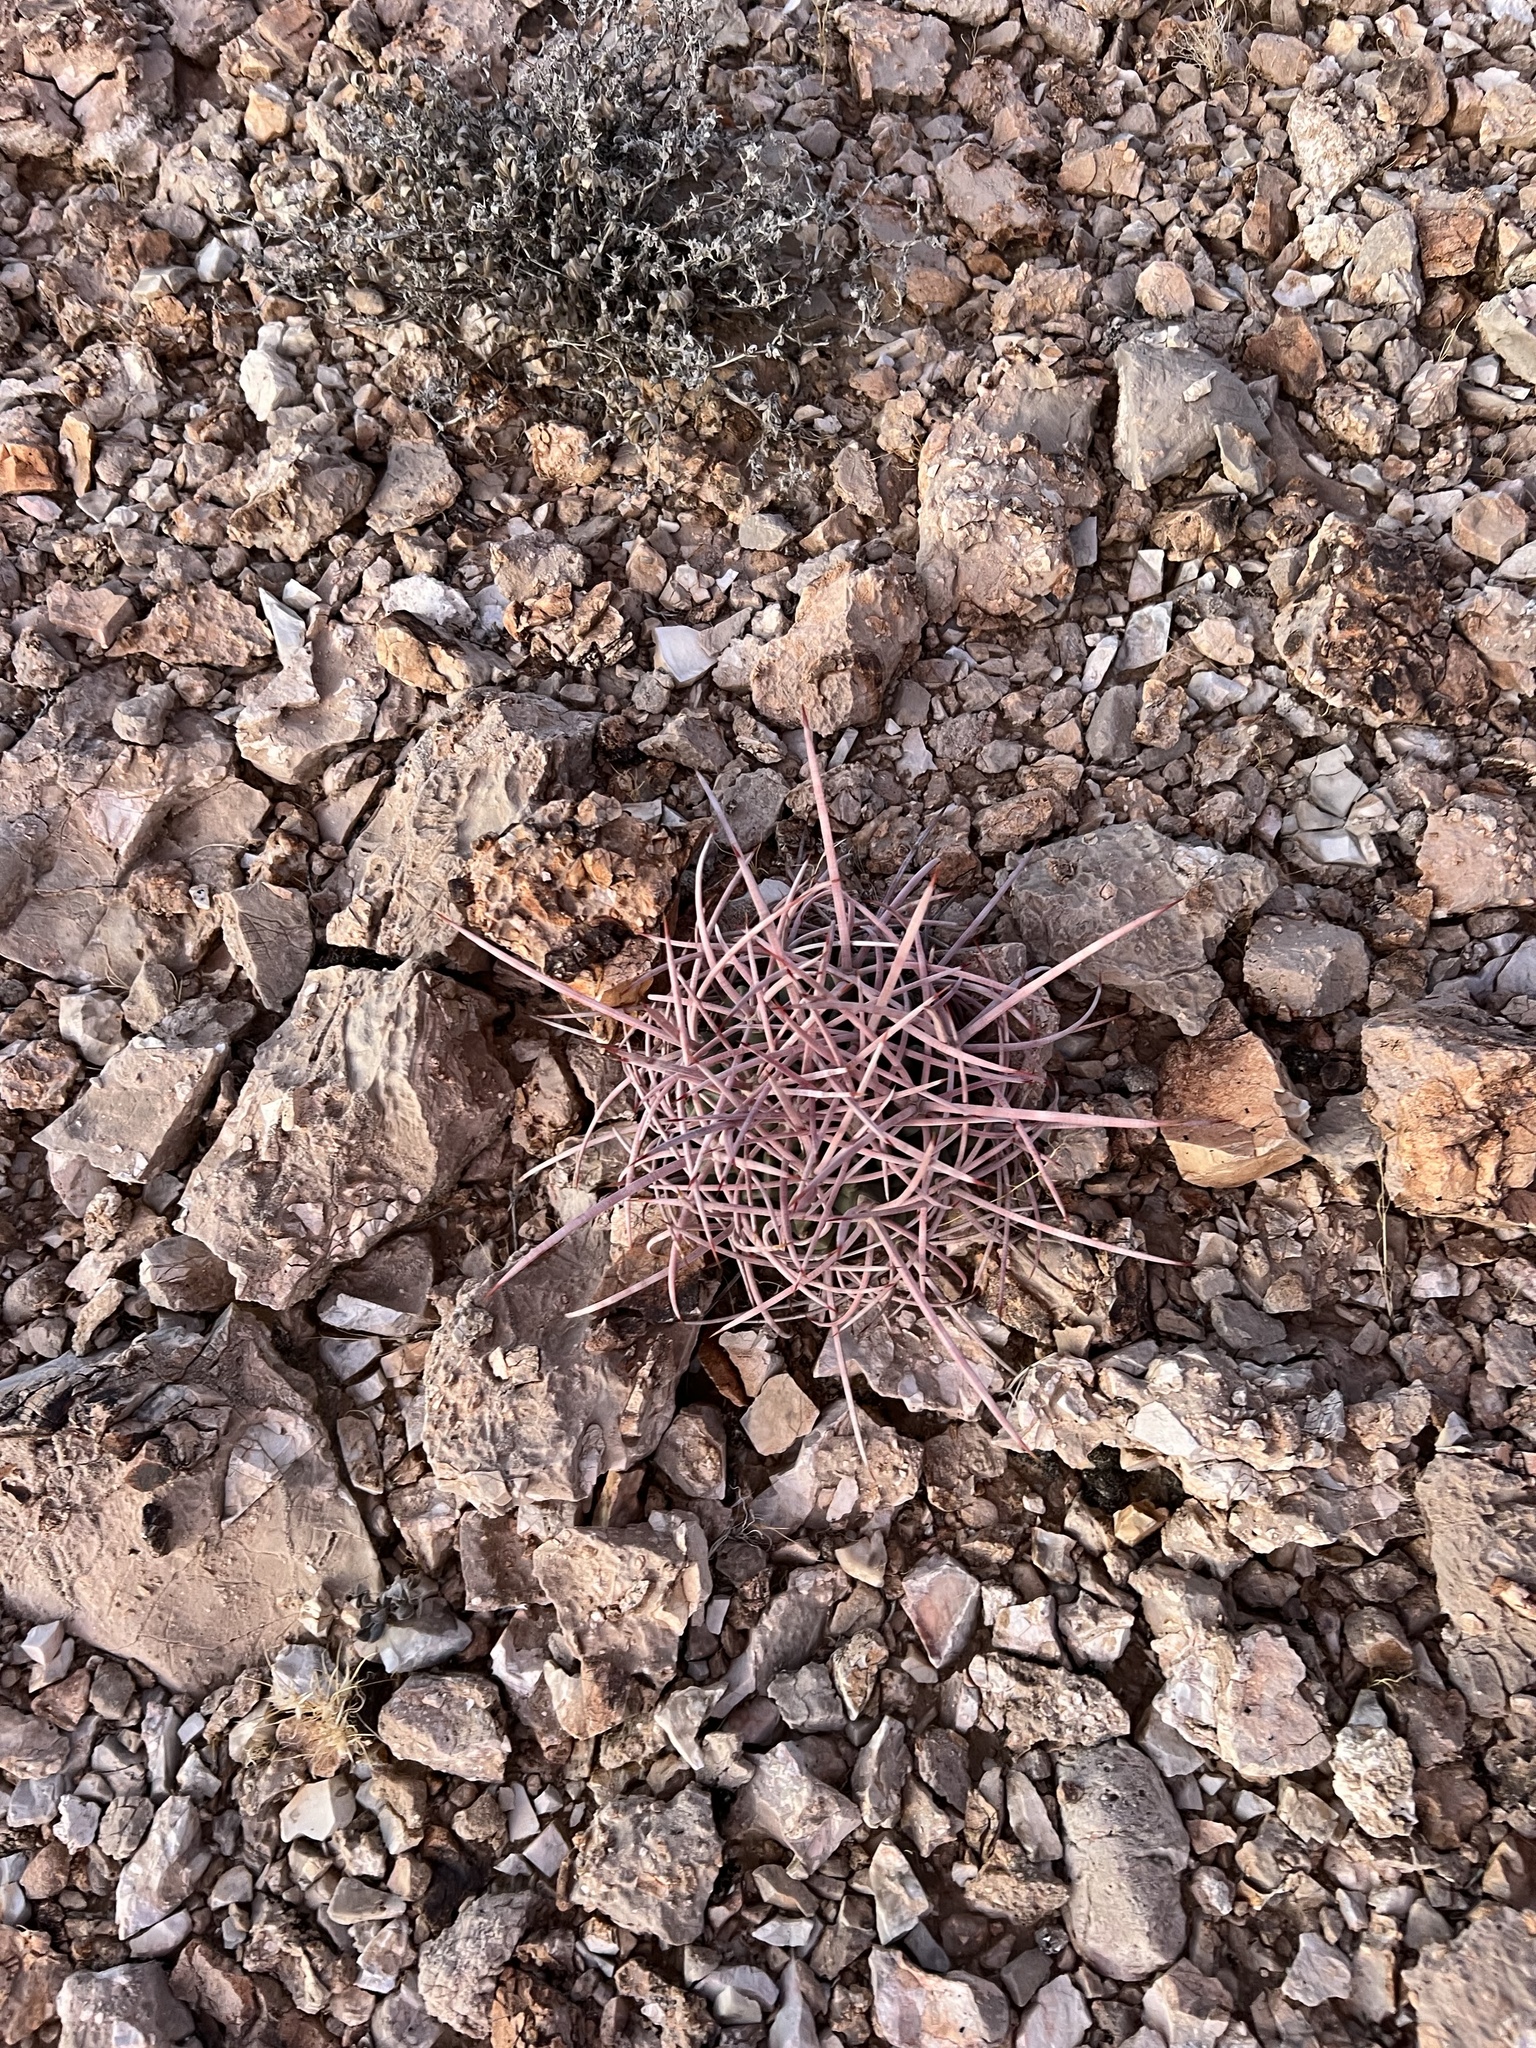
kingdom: Plantae
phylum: Tracheophyta
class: Magnoliopsida
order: Caryophyllales
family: Cactaceae
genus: Echinocactus
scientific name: Echinocactus polycephalus
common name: Cottontop cactus
